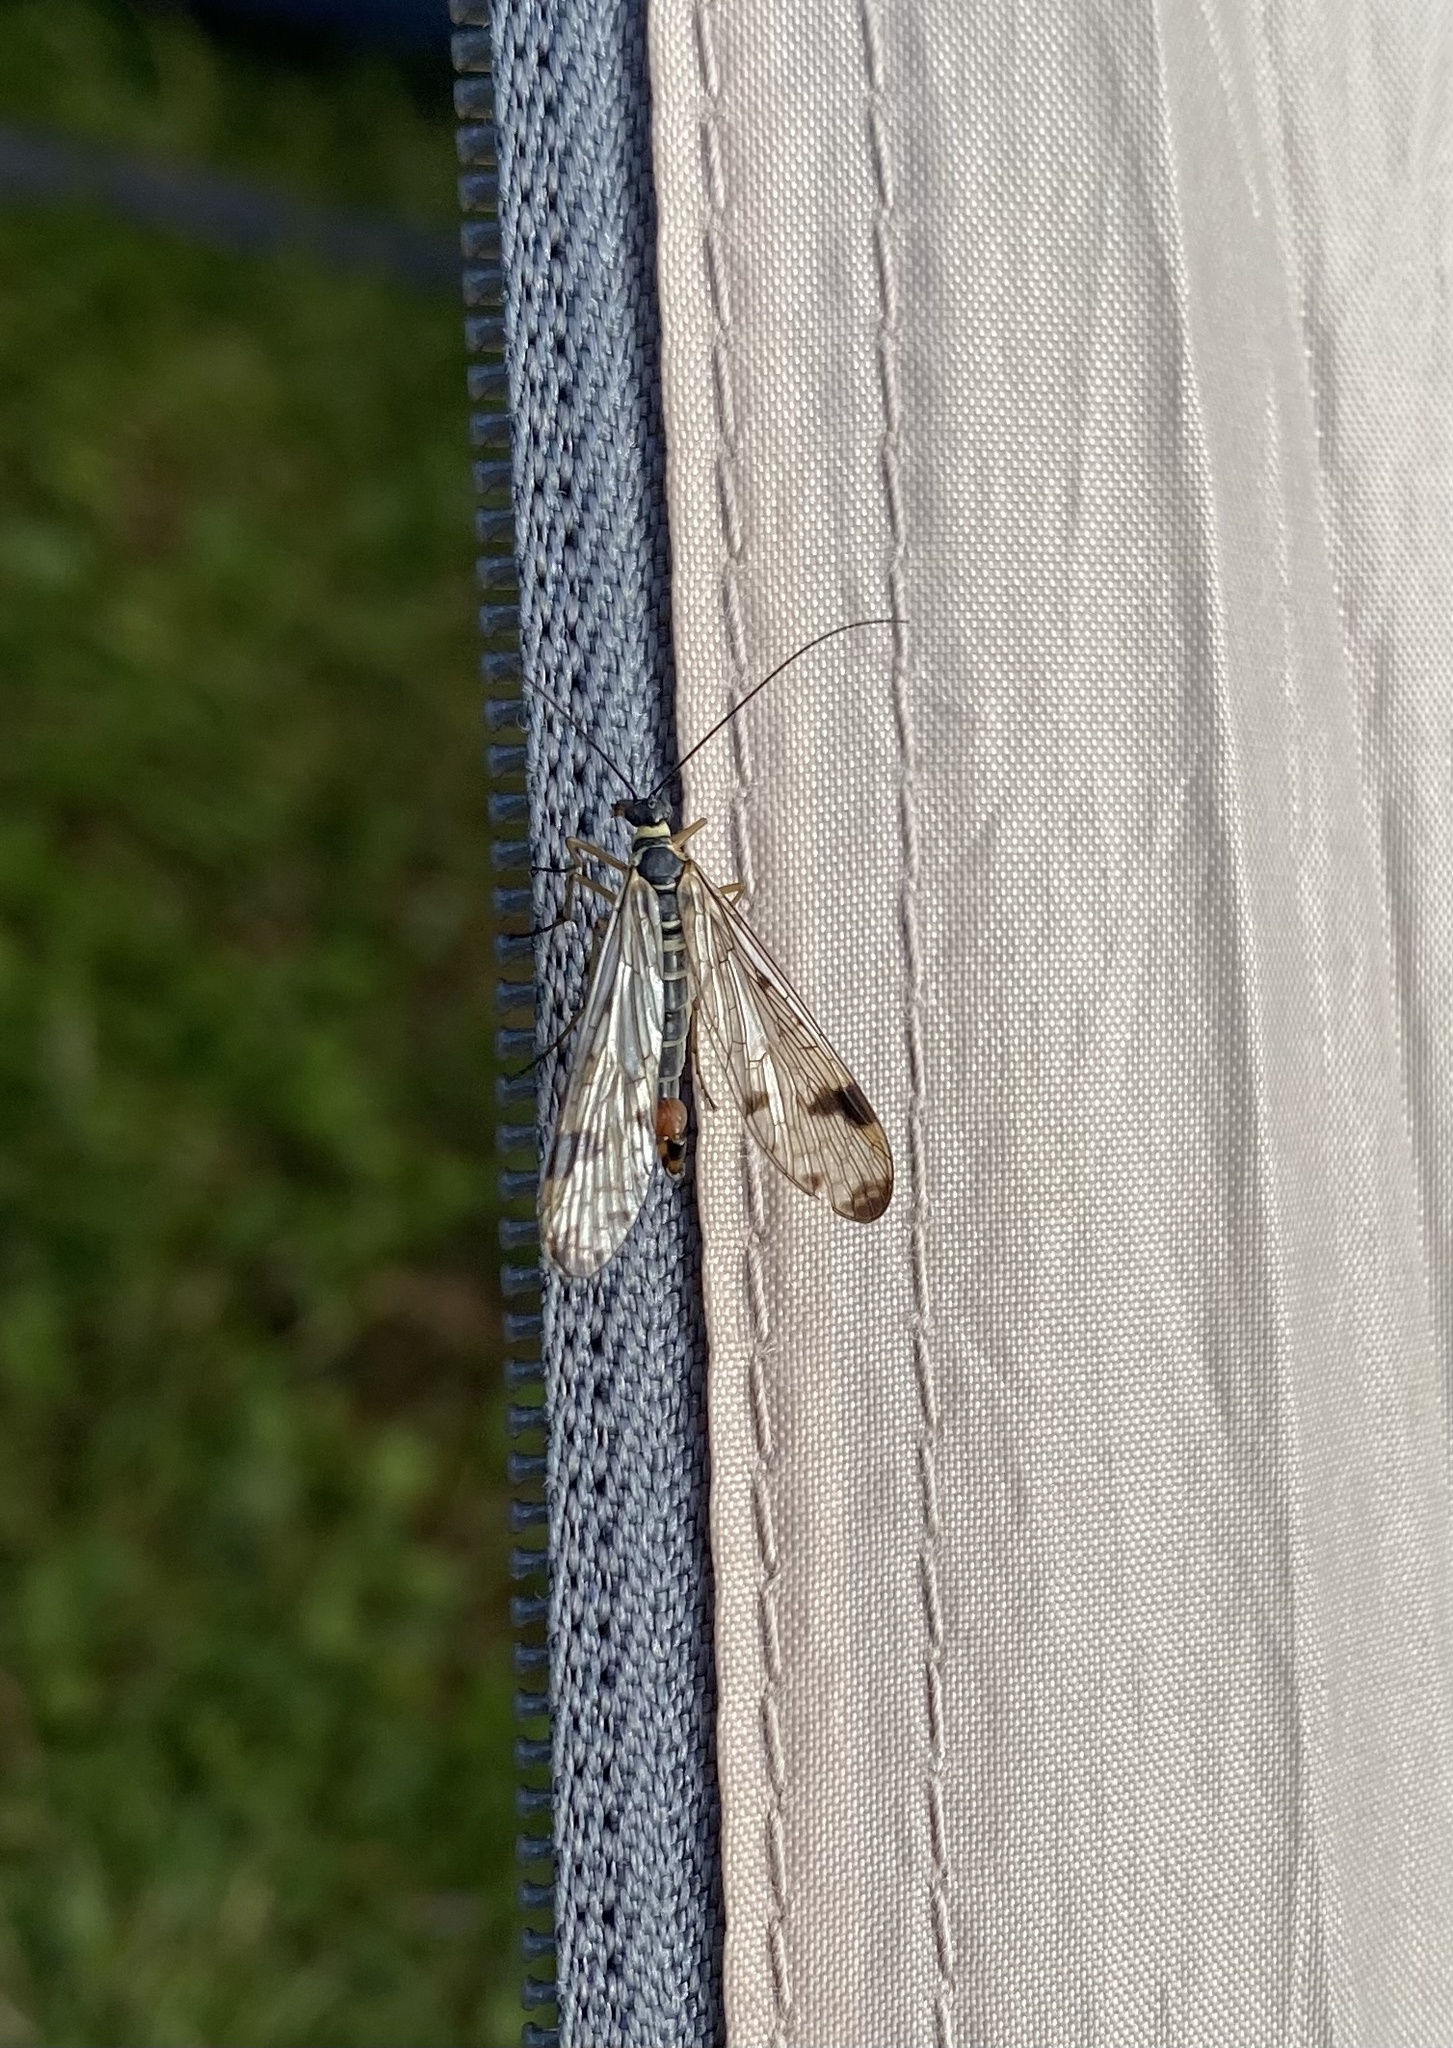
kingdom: Animalia
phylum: Arthropoda
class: Insecta
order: Mecoptera
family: Panorpidae
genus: Panorpa
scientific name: Panorpa caucasica
